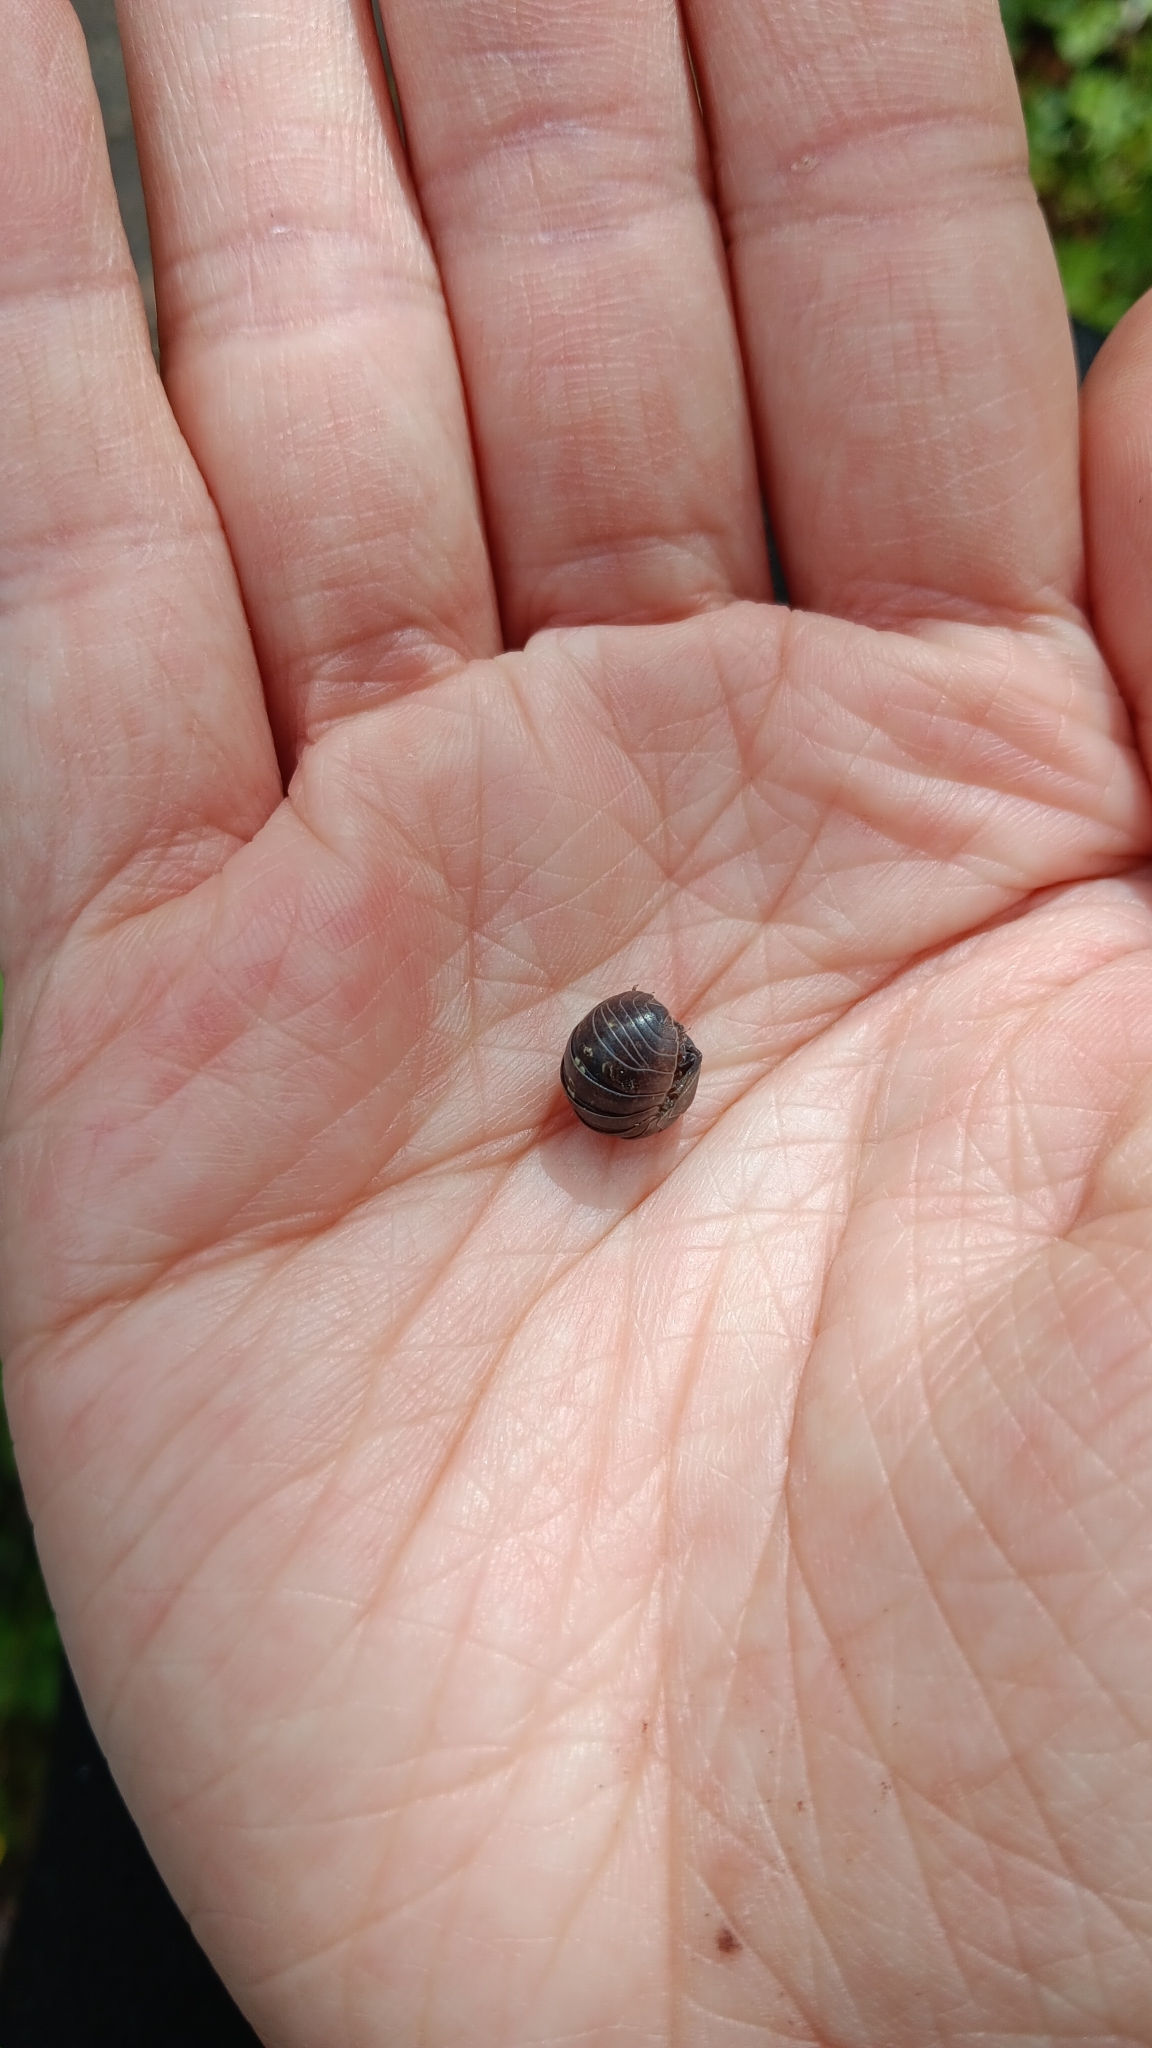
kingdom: Animalia
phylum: Arthropoda
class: Malacostraca
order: Isopoda
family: Armadillidiidae
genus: Armadillidium
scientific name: Armadillidium vulgare
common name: Common pill woodlouse
